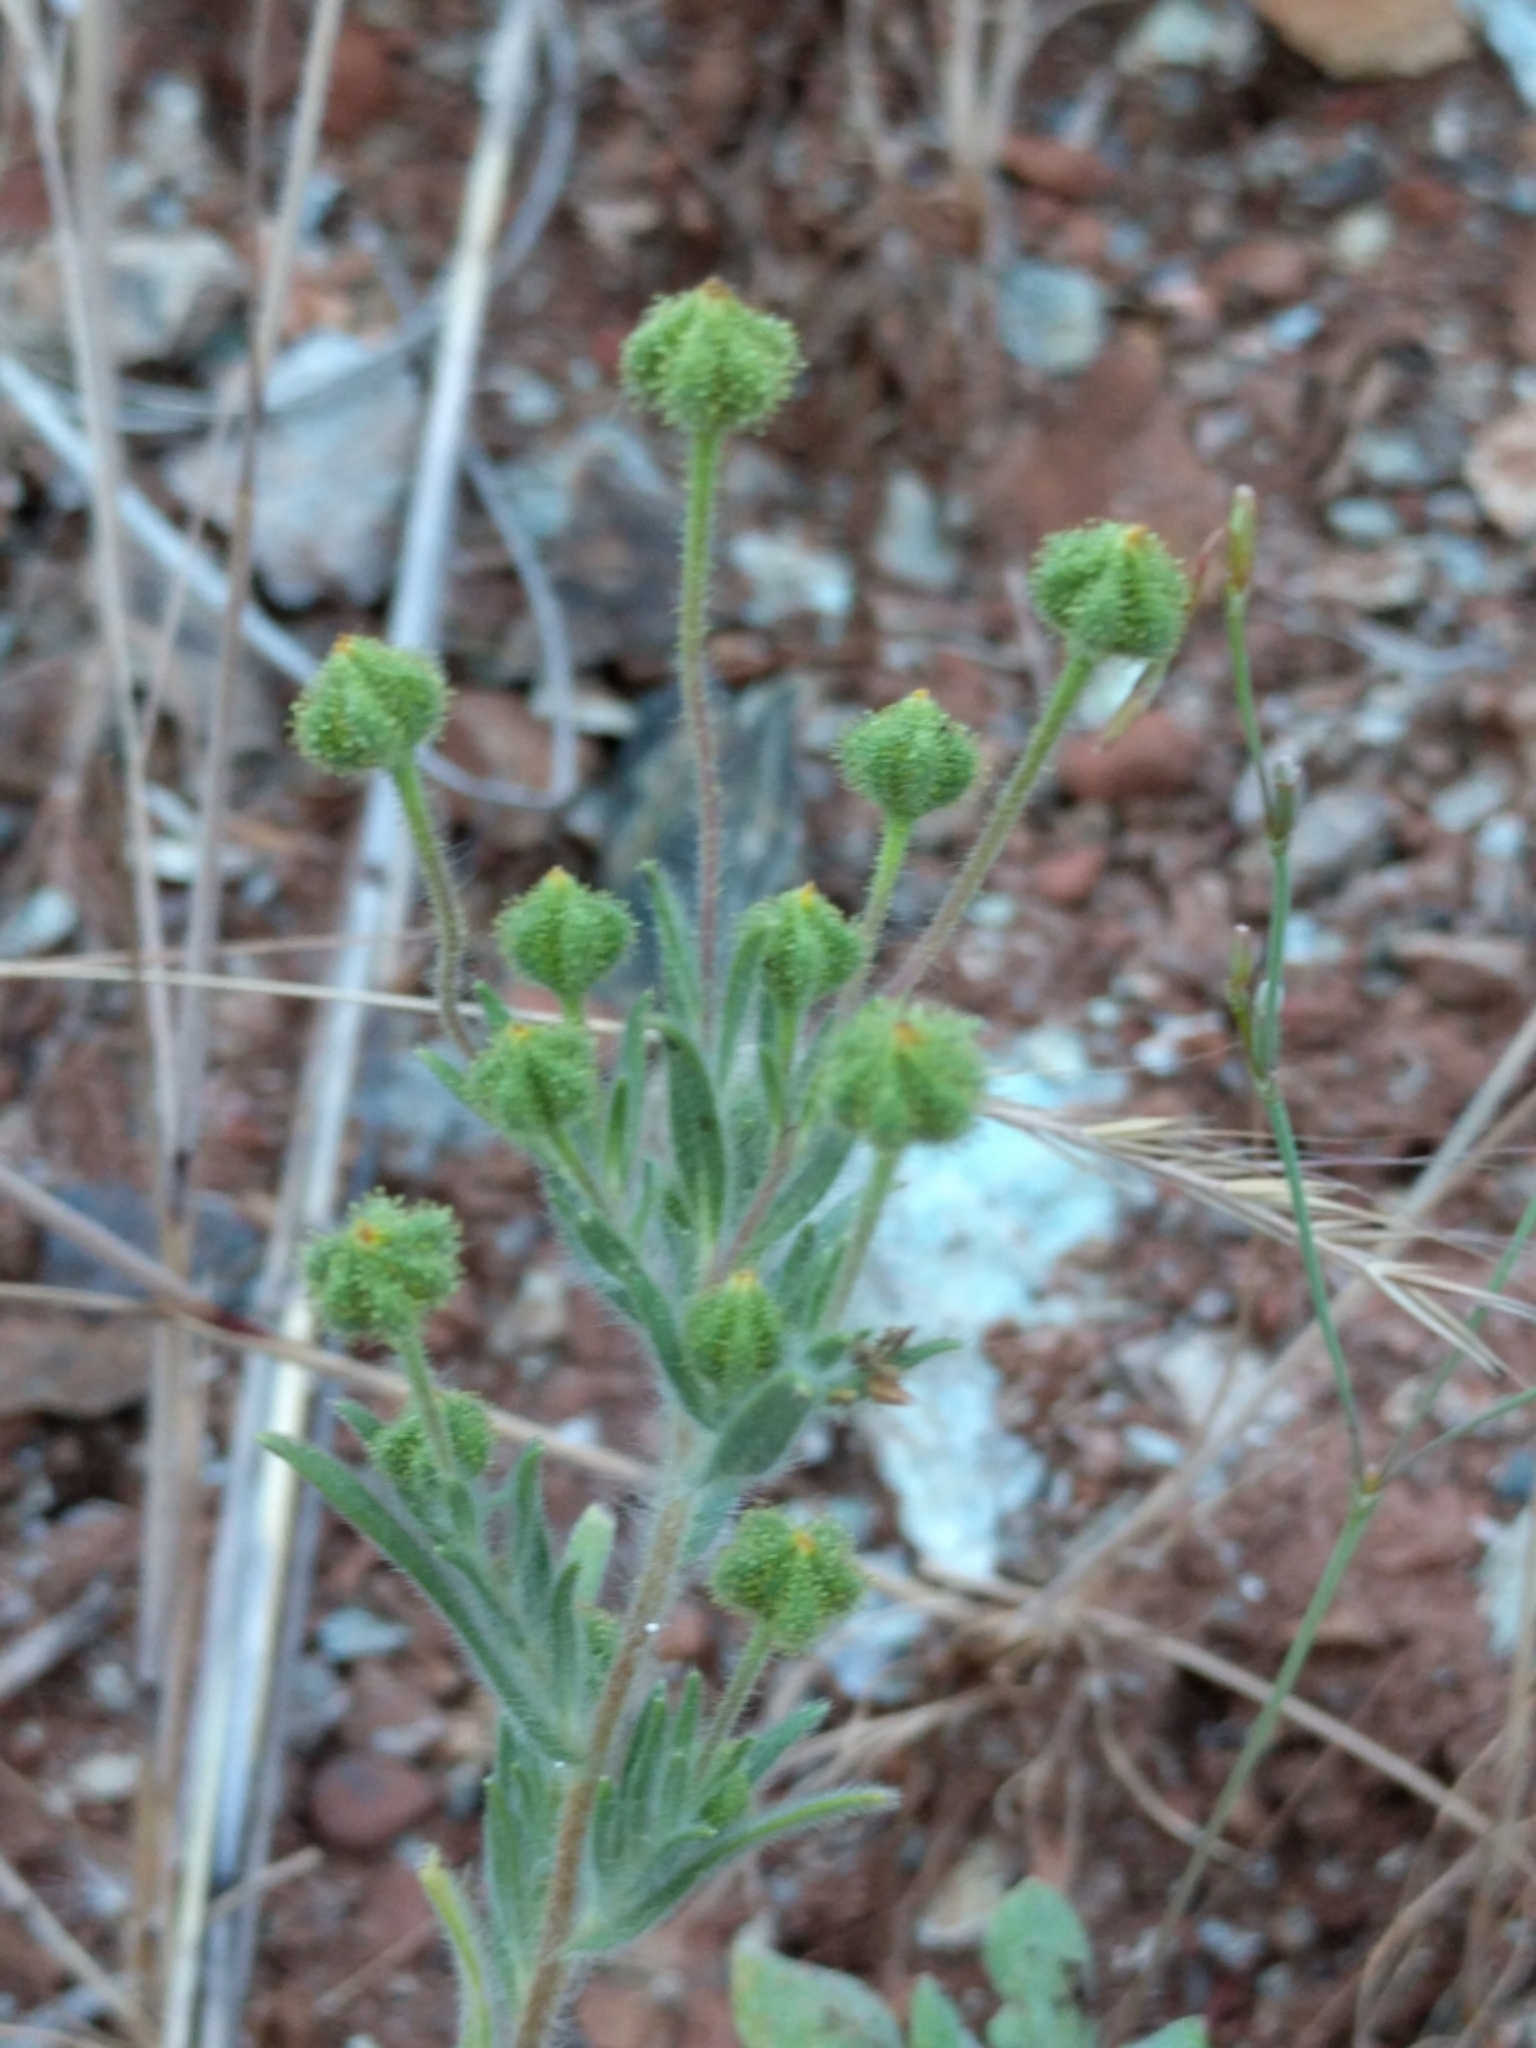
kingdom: Plantae
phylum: Tracheophyta
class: Magnoliopsida
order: Asterales
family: Asteraceae
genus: Madia
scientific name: Madia exigua
